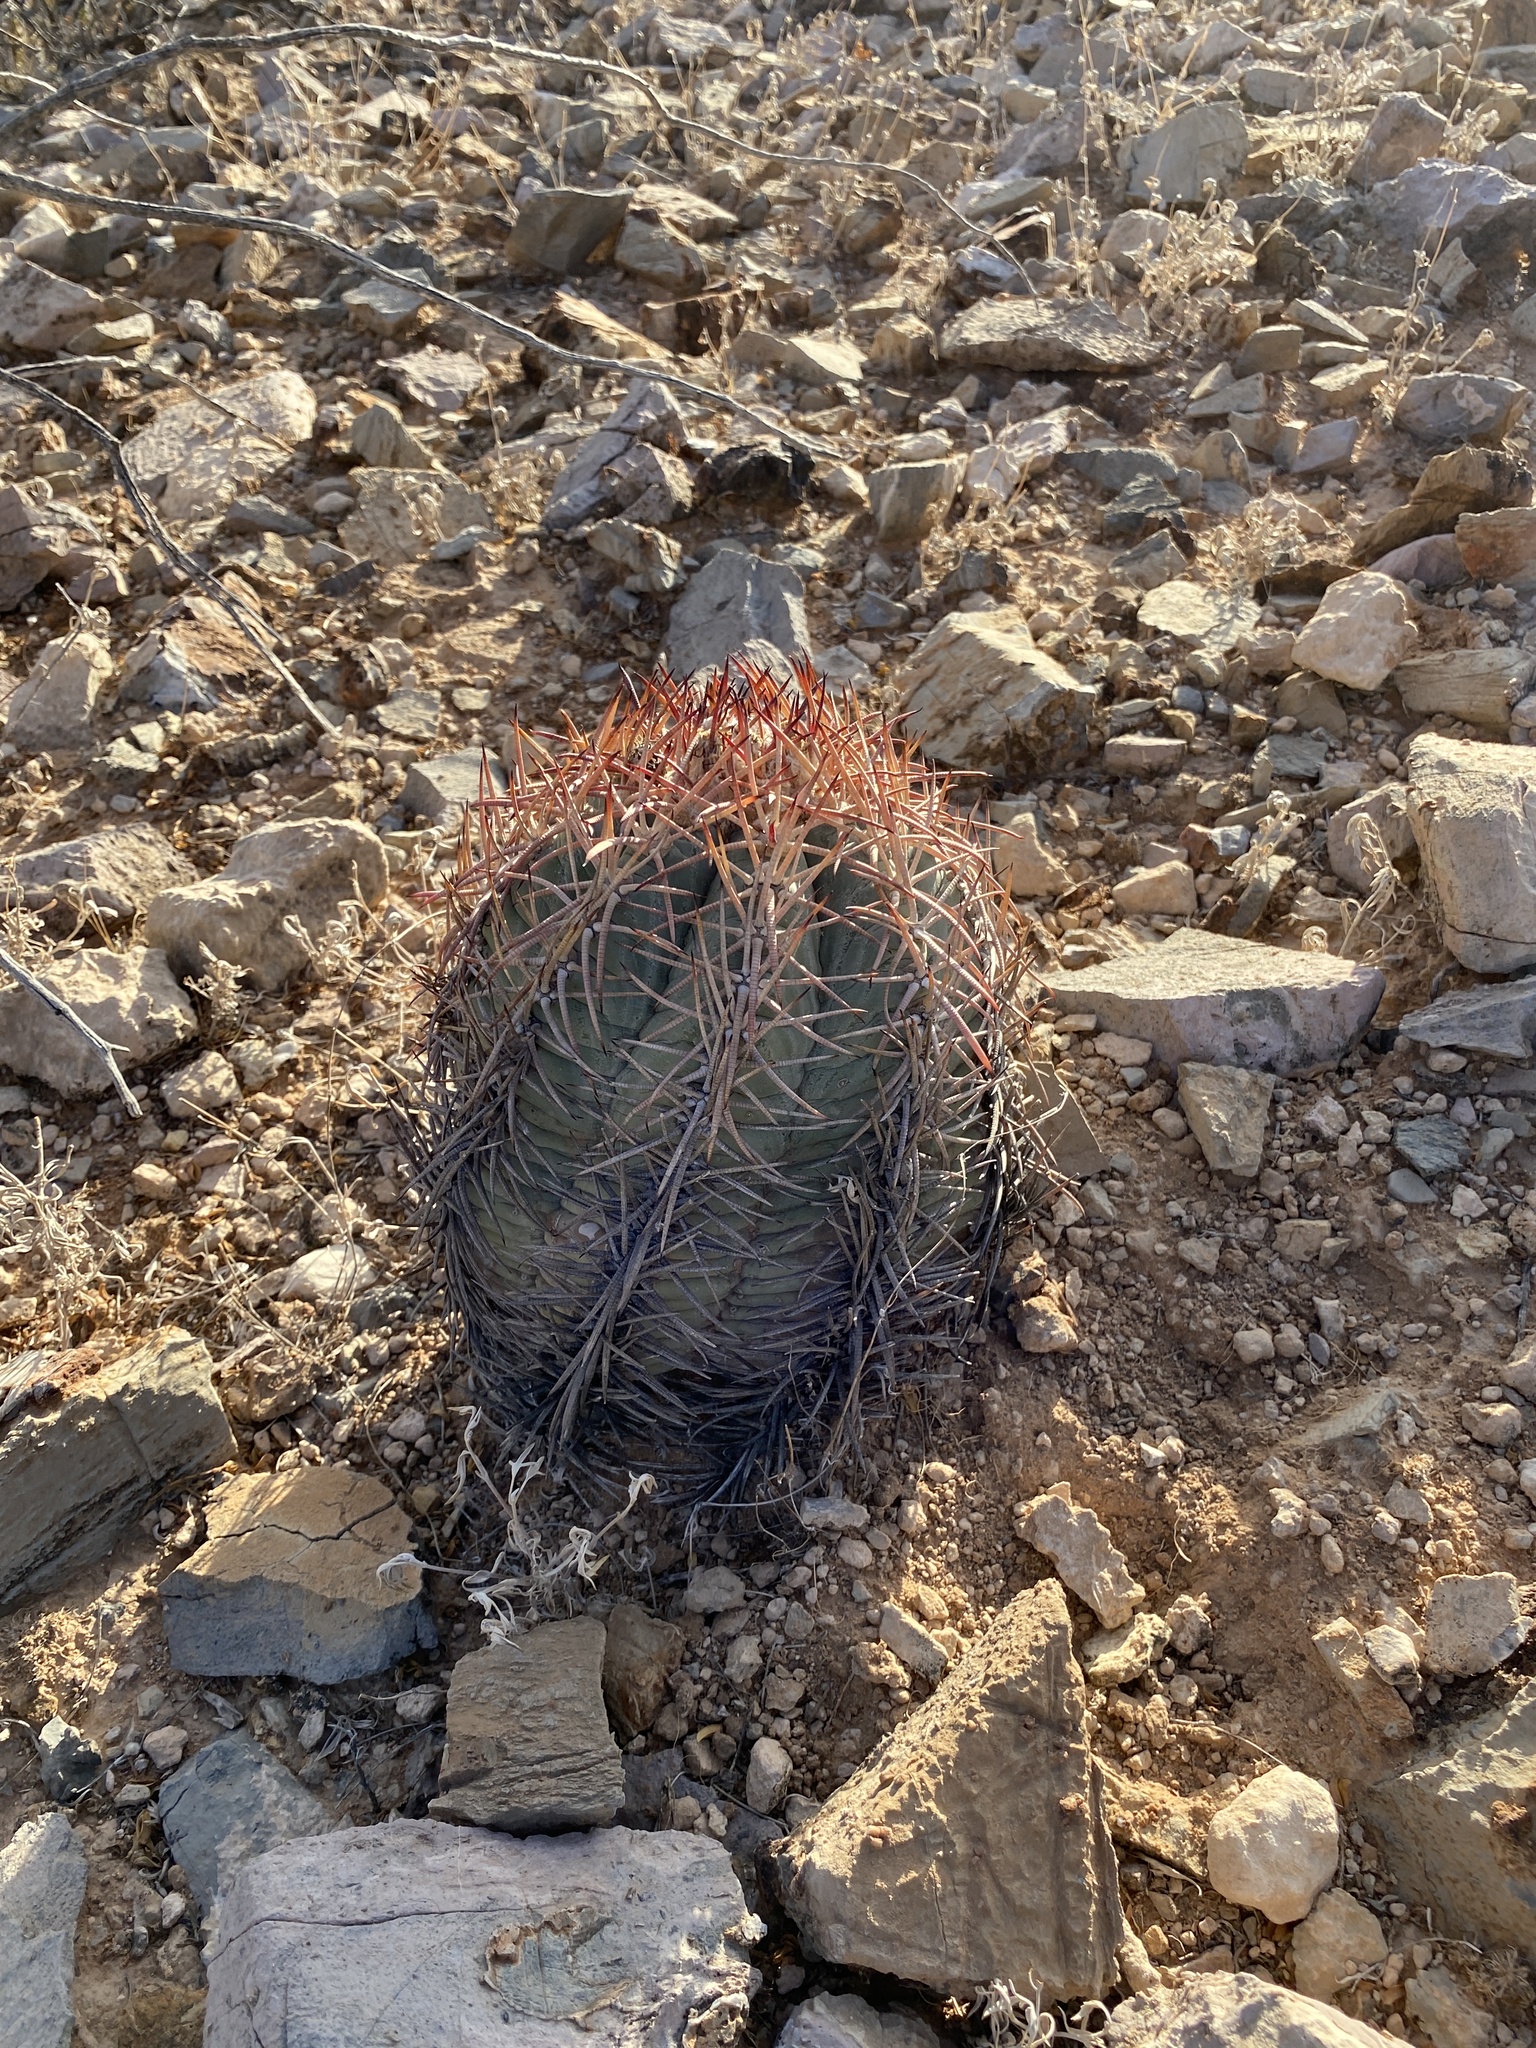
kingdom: Plantae
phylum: Tracheophyta
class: Magnoliopsida
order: Caryophyllales
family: Cactaceae
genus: Echinocactus
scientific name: Echinocactus horizonthalonius
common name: Devilshead
